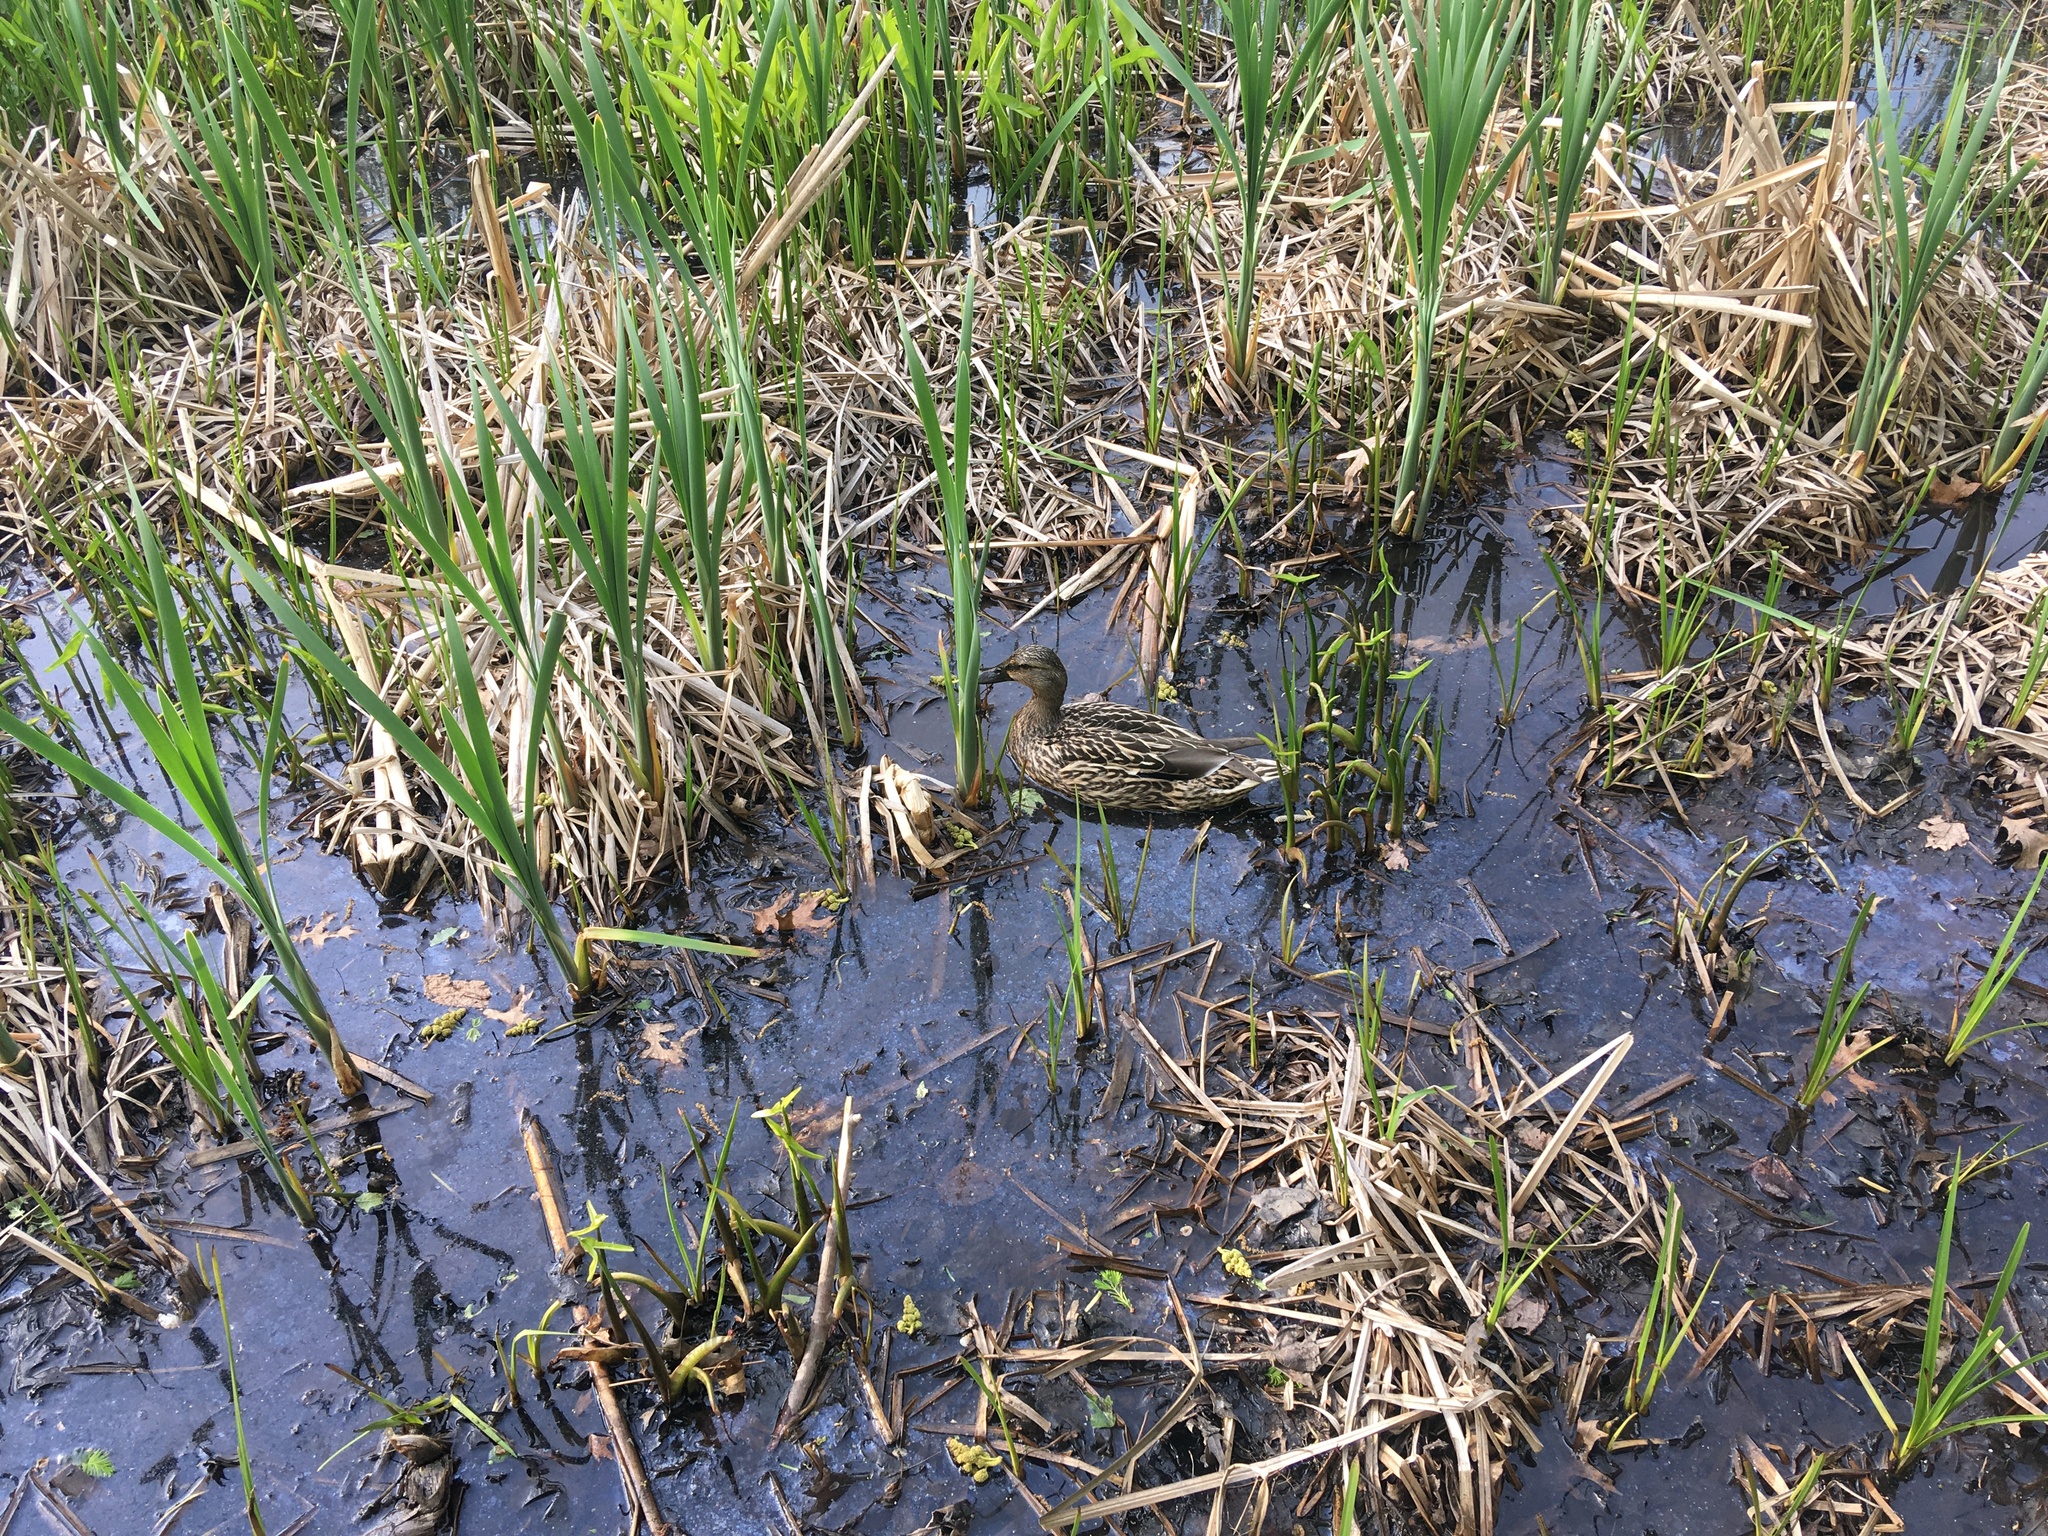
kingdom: Animalia
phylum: Chordata
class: Aves
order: Anseriformes
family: Anatidae
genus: Anas
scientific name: Anas platyrhynchos
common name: Mallard
